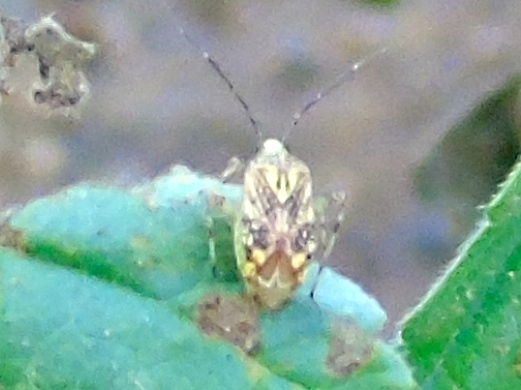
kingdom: Animalia
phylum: Arthropoda
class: Insecta
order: Hemiptera
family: Miridae
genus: Taedia
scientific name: Taedia marmorata
